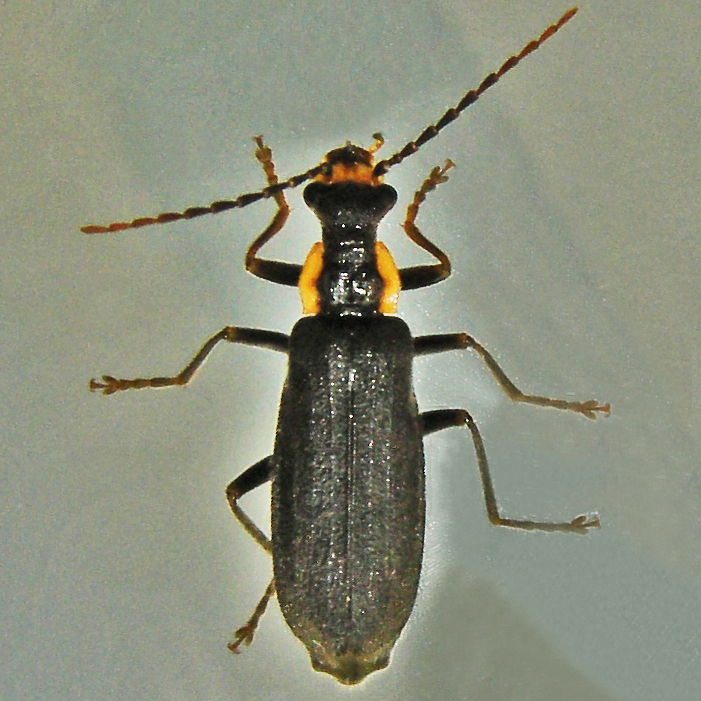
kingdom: Animalia
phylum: Arthropoda
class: Insecta
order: Coleoptera
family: Cantharidae
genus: Podabrus
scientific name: Podabrus rugosulus
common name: Wrinkled soldier beetle
